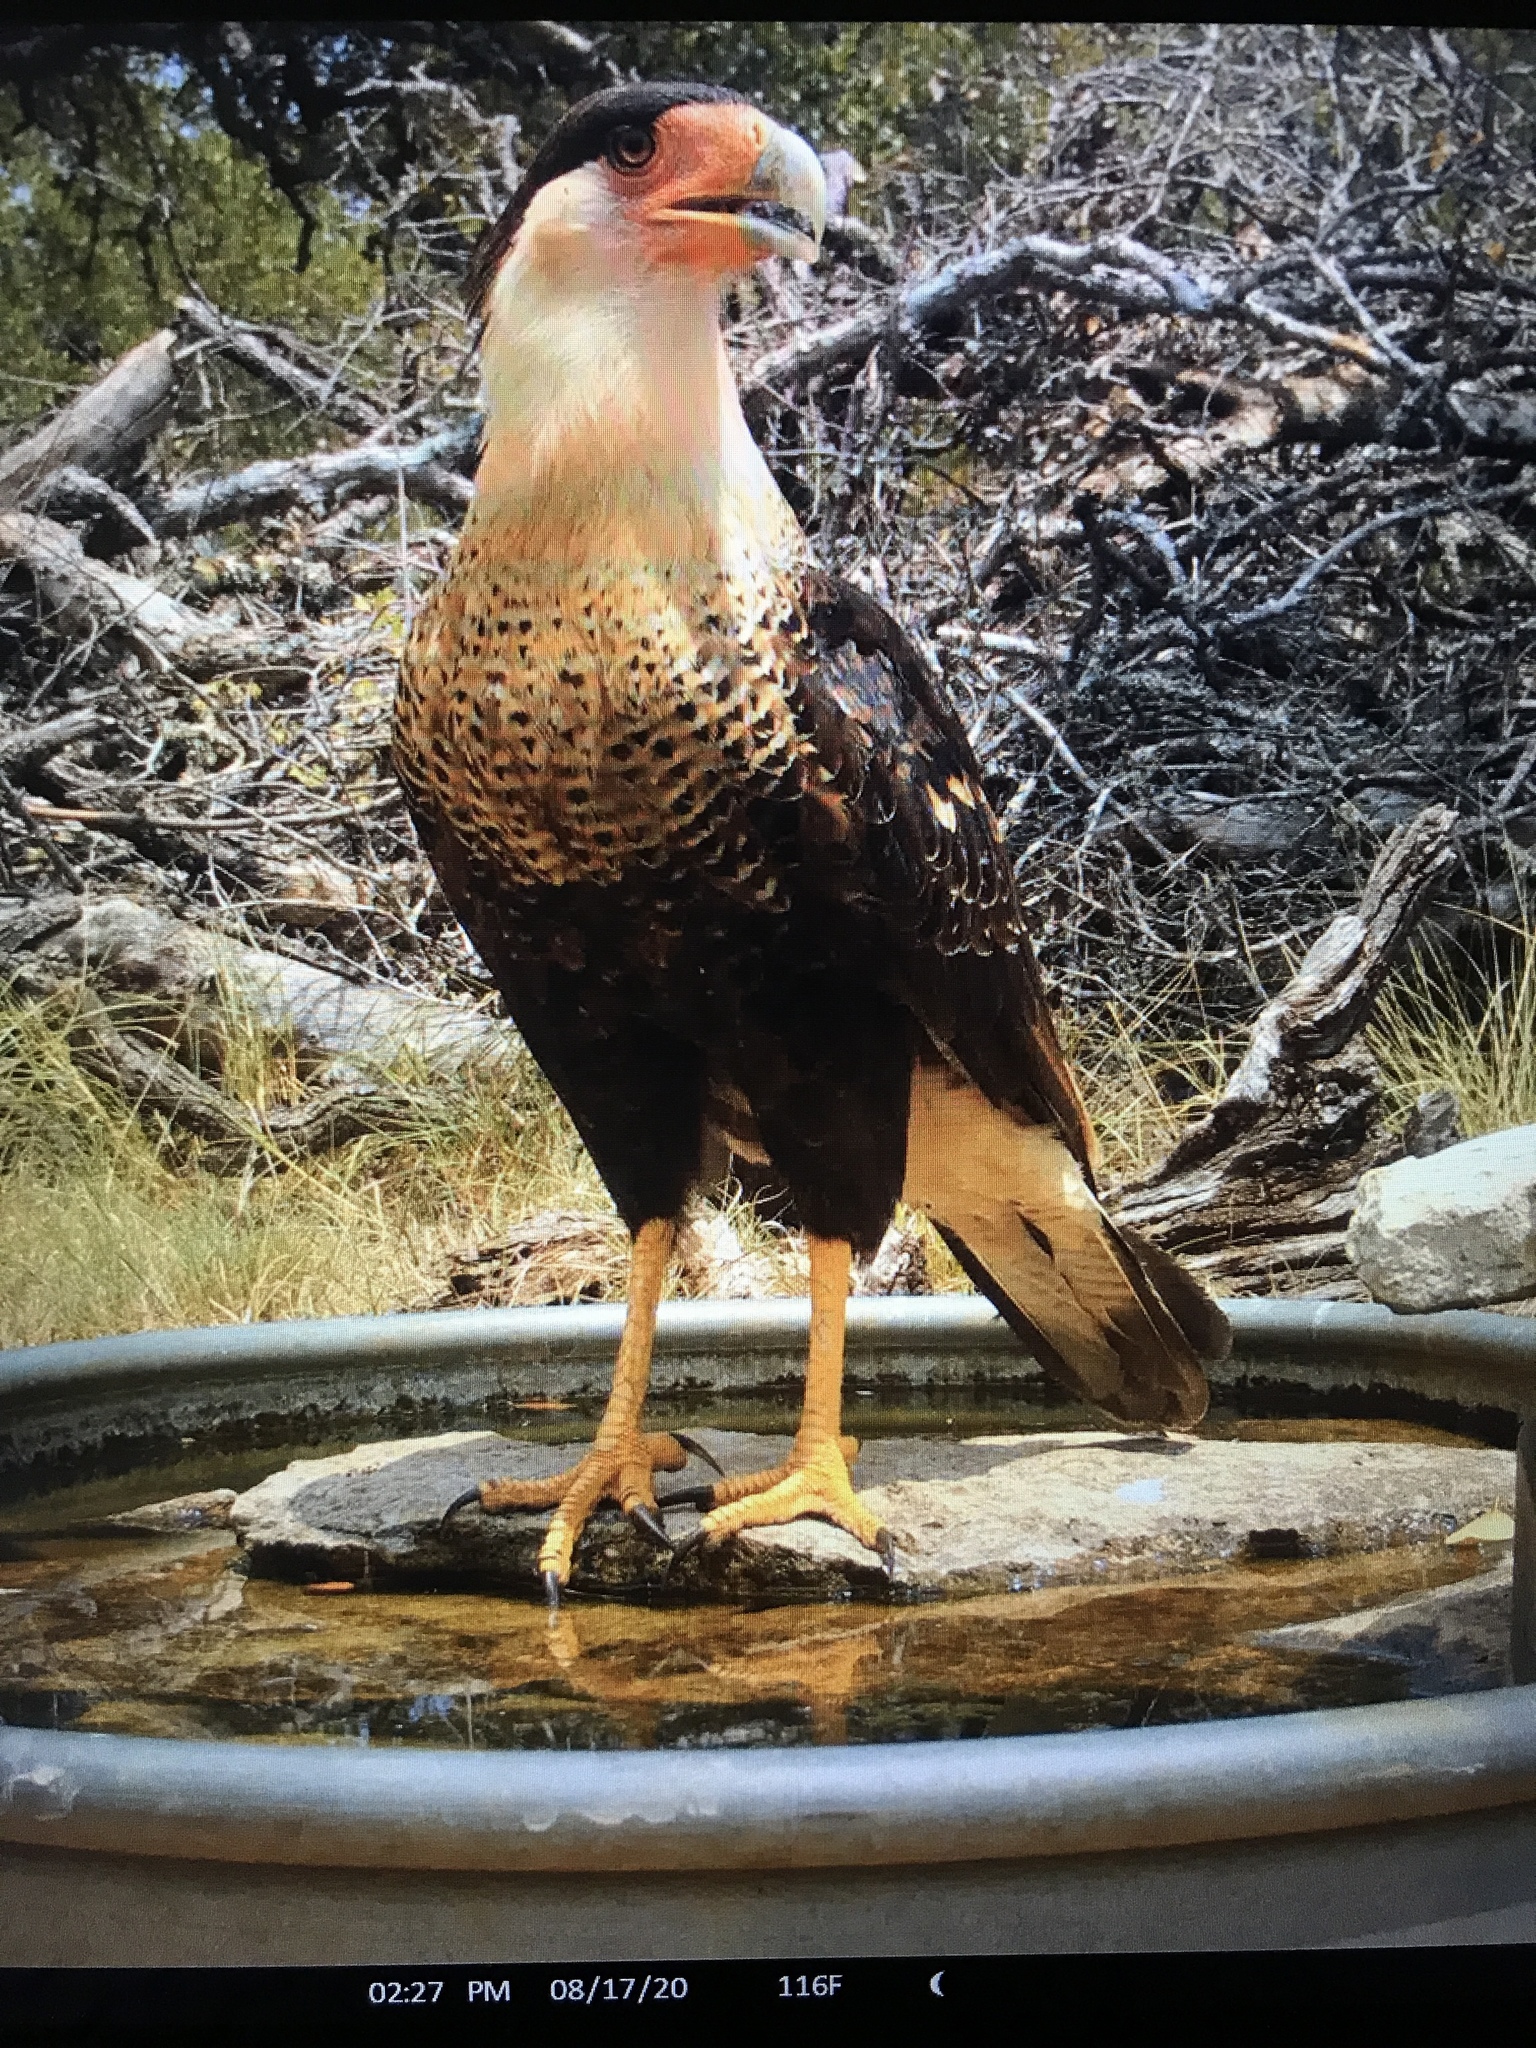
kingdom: Animalia
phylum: Chordata
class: Aves
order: Falconiformes
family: Falconidae
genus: Caracara
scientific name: Caracara plancus
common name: Southern caracara
